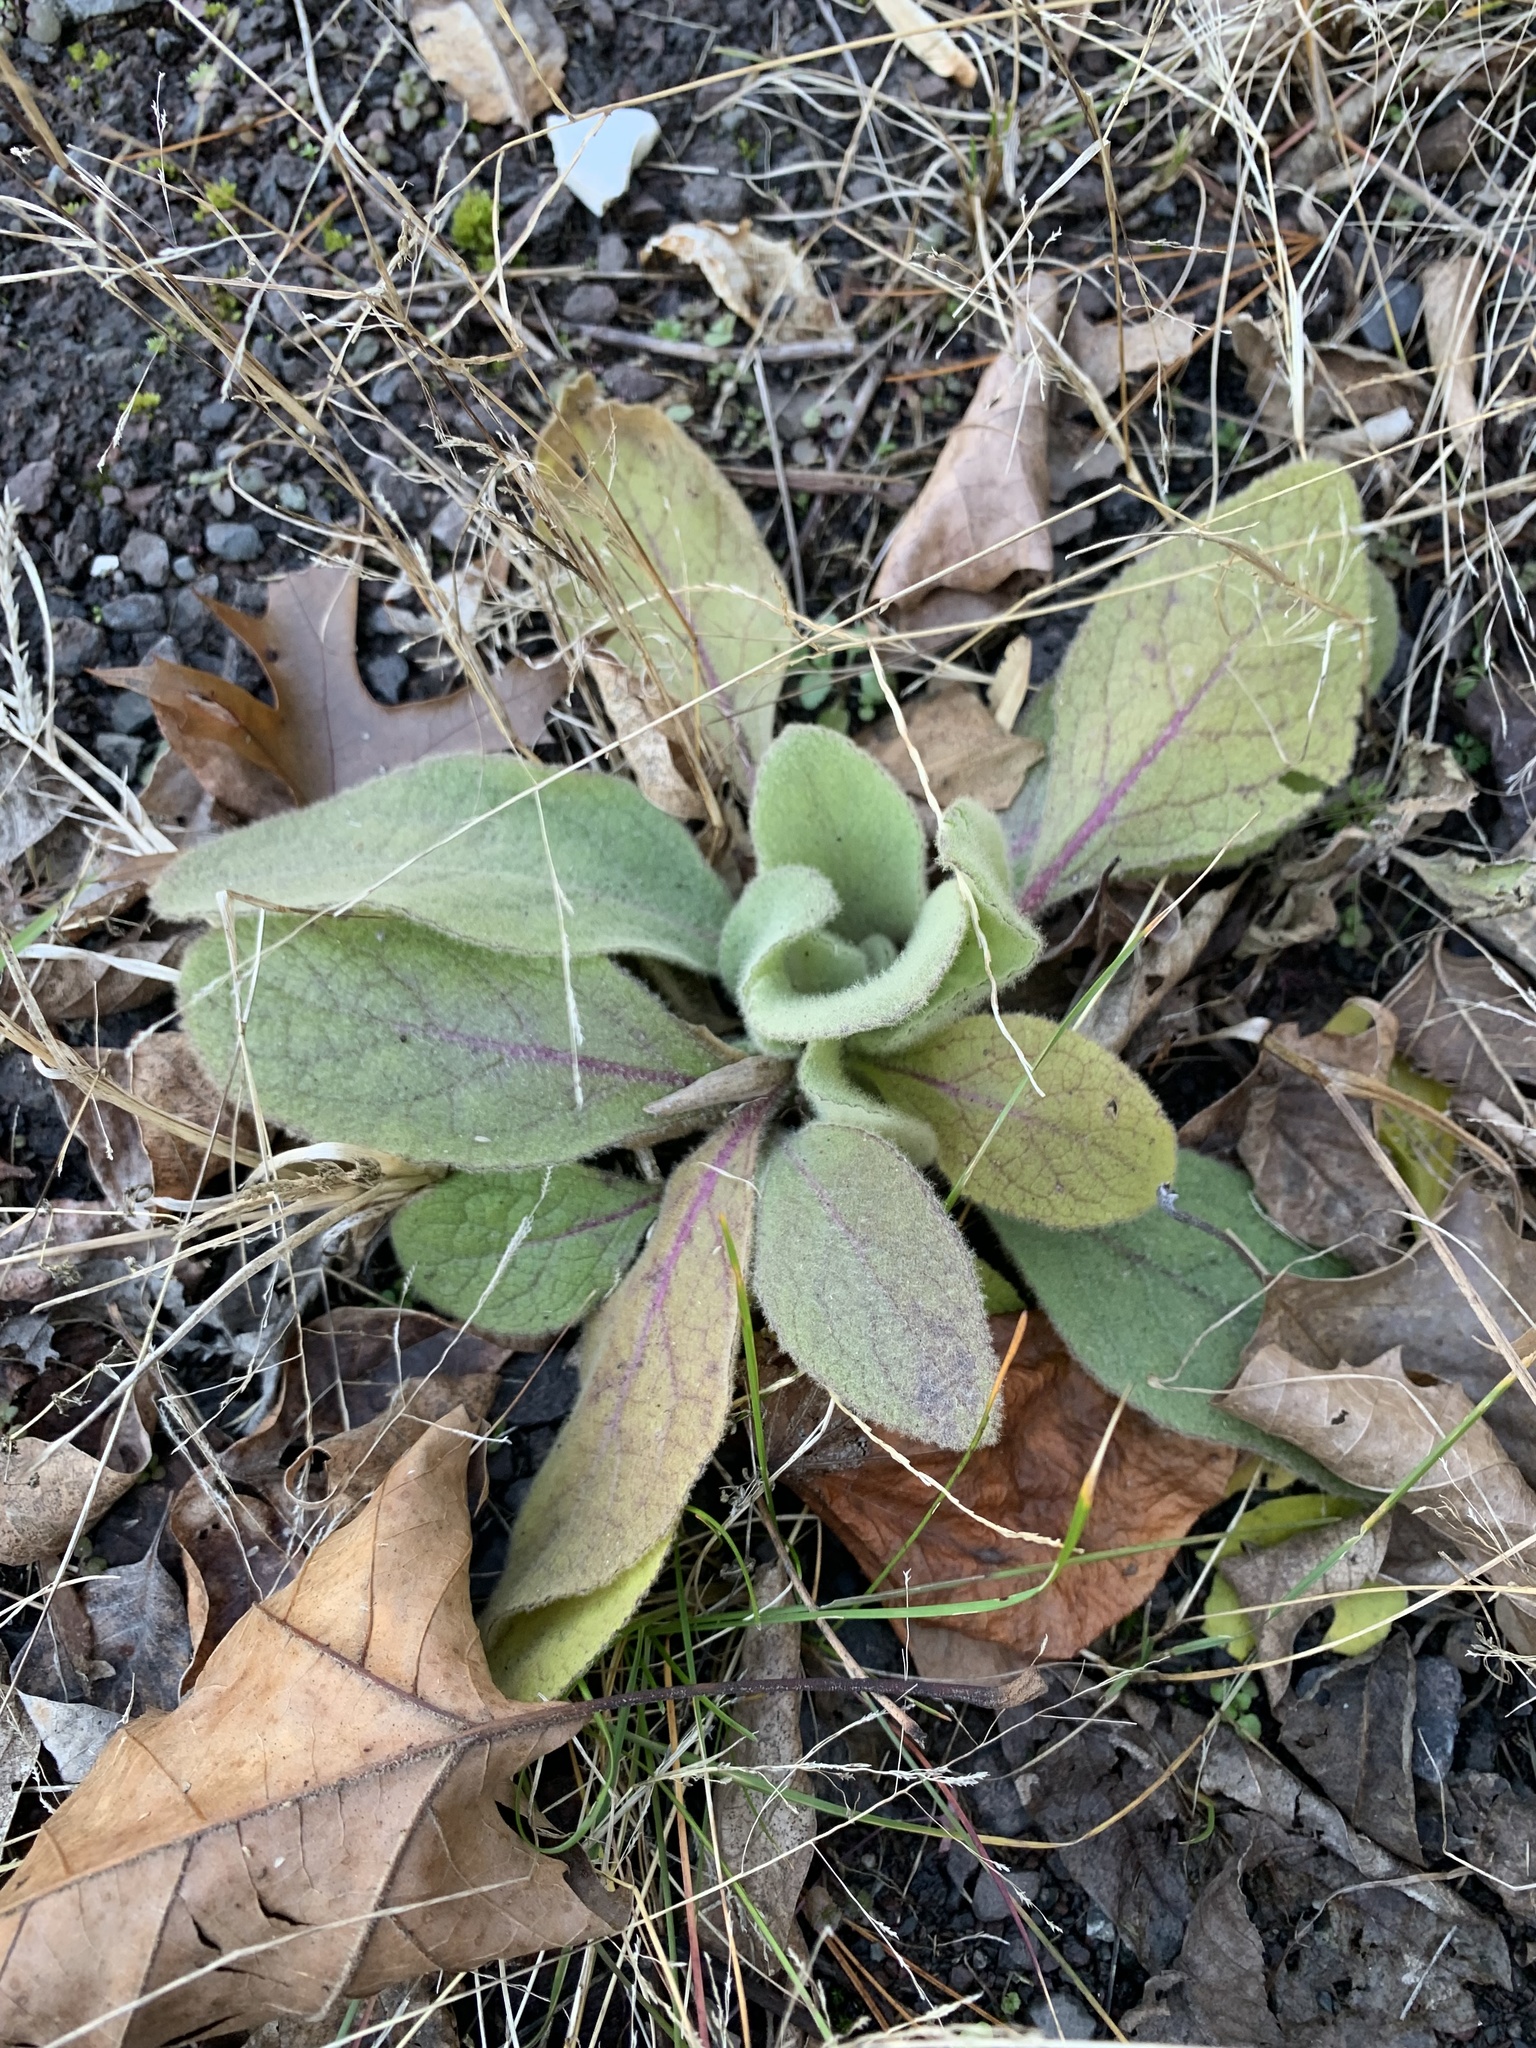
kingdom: Plantae
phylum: Tracheophyta
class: Magnoliopsida
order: Lamiales
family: Scrophulariaceae
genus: Verbascum
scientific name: Verbascum thapsus
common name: Common mullein
